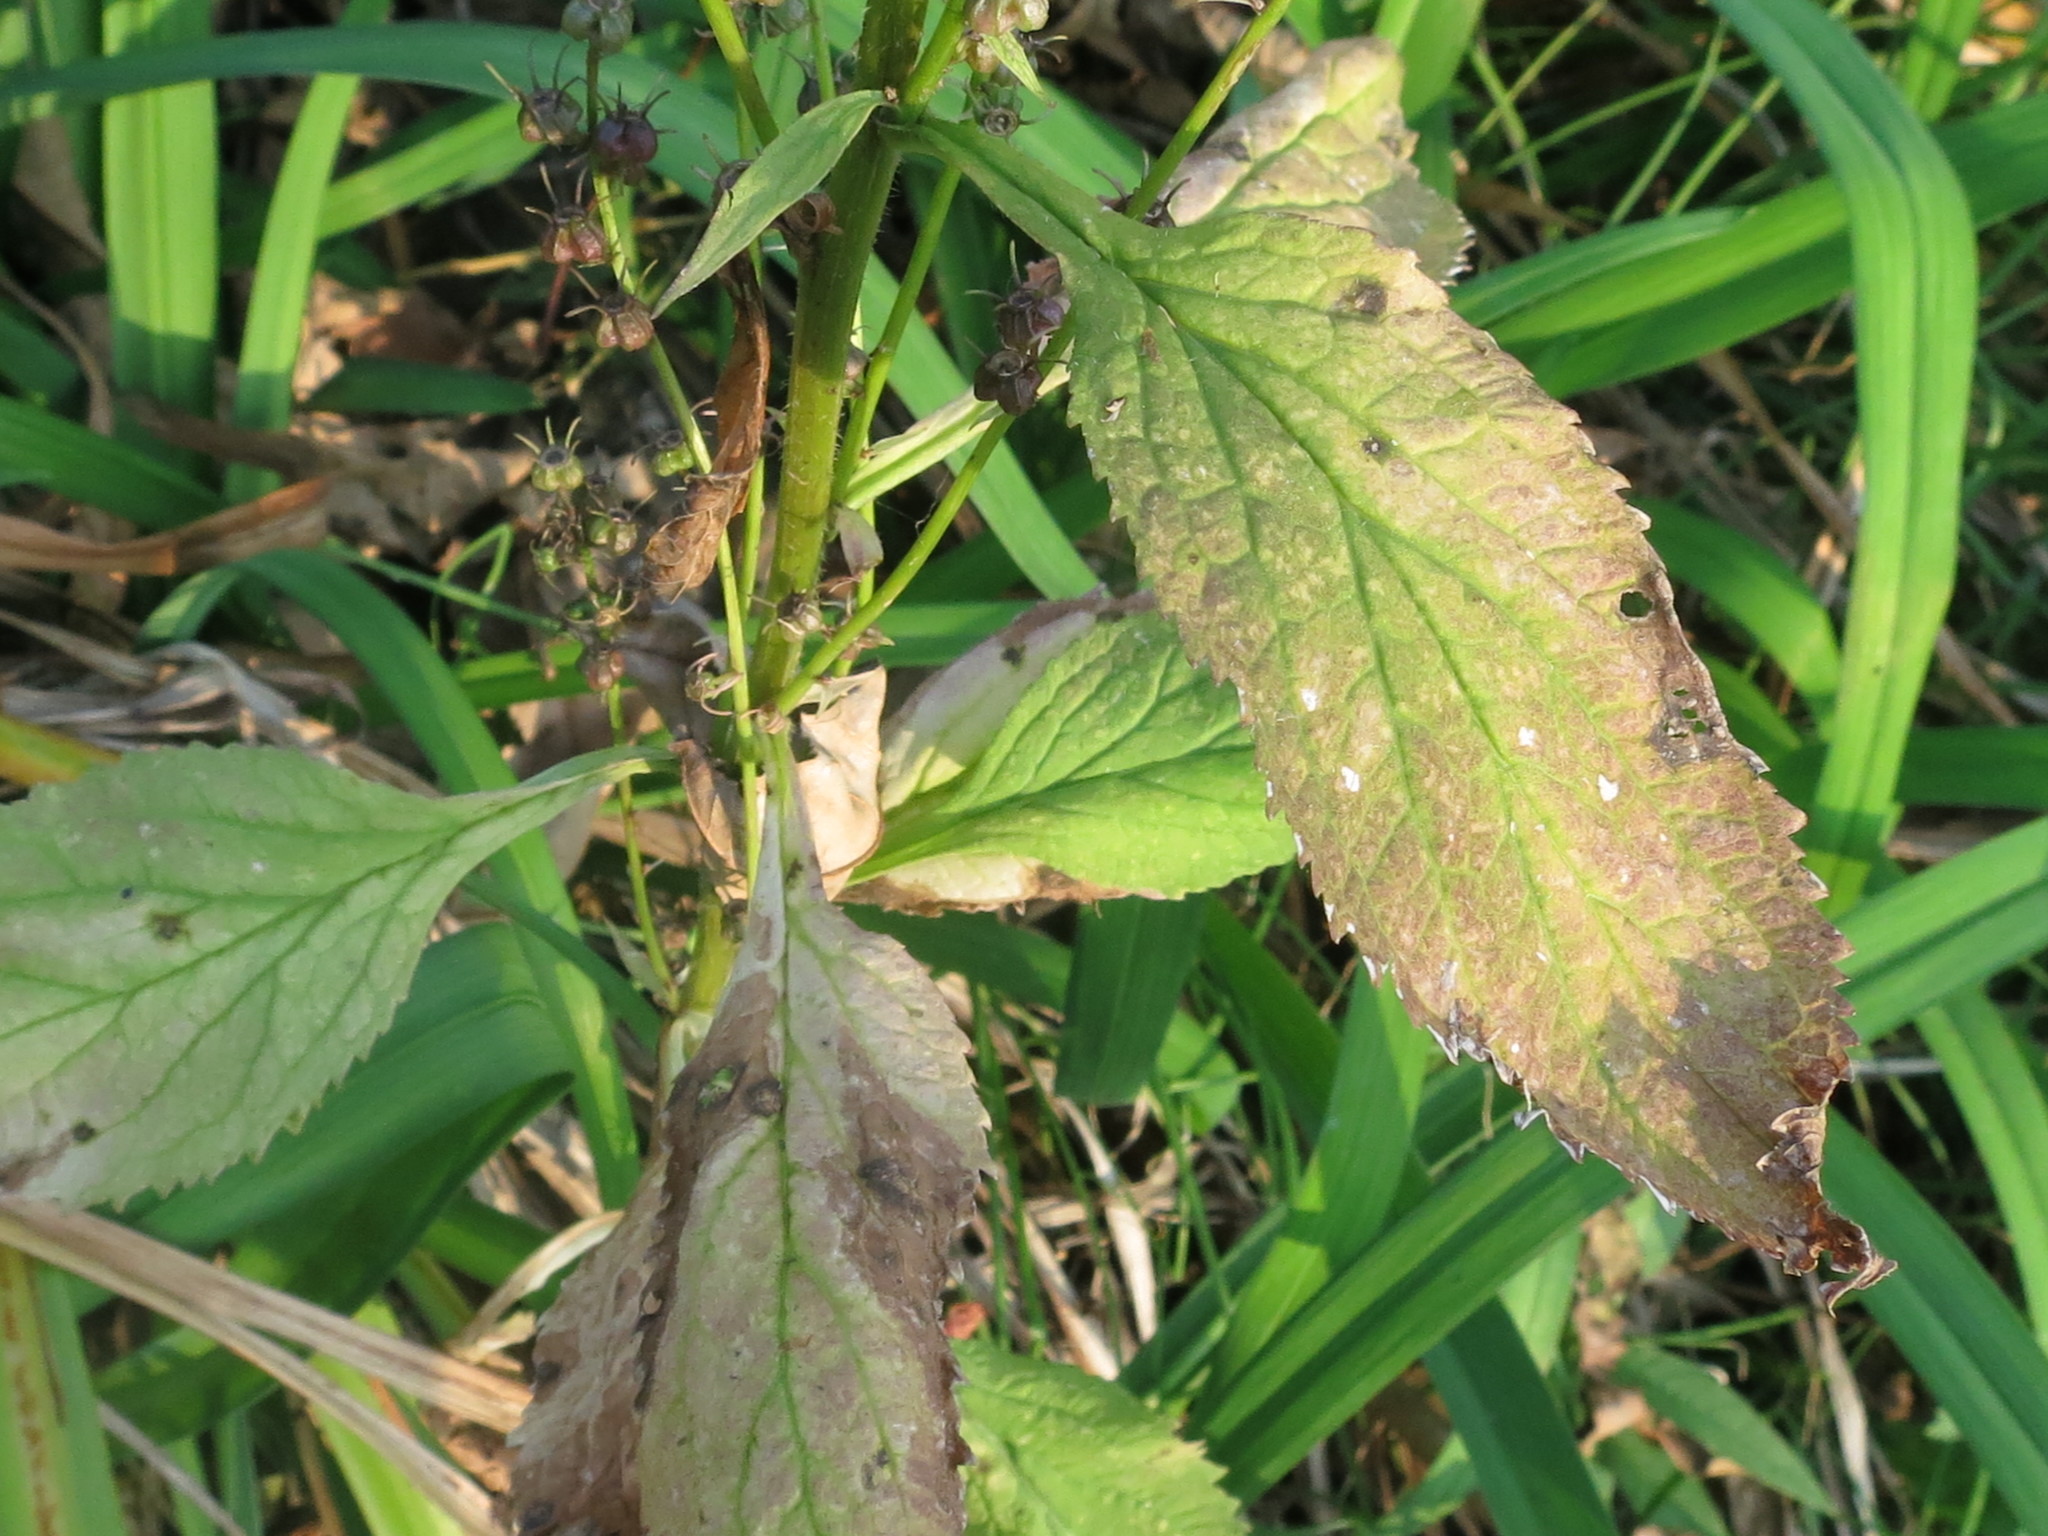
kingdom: Plantae
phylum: Tracheophyta
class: Magnoliopsida
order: Asterales
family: Campanulaceae
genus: Asyneuma
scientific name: Asyneuma japonicum
